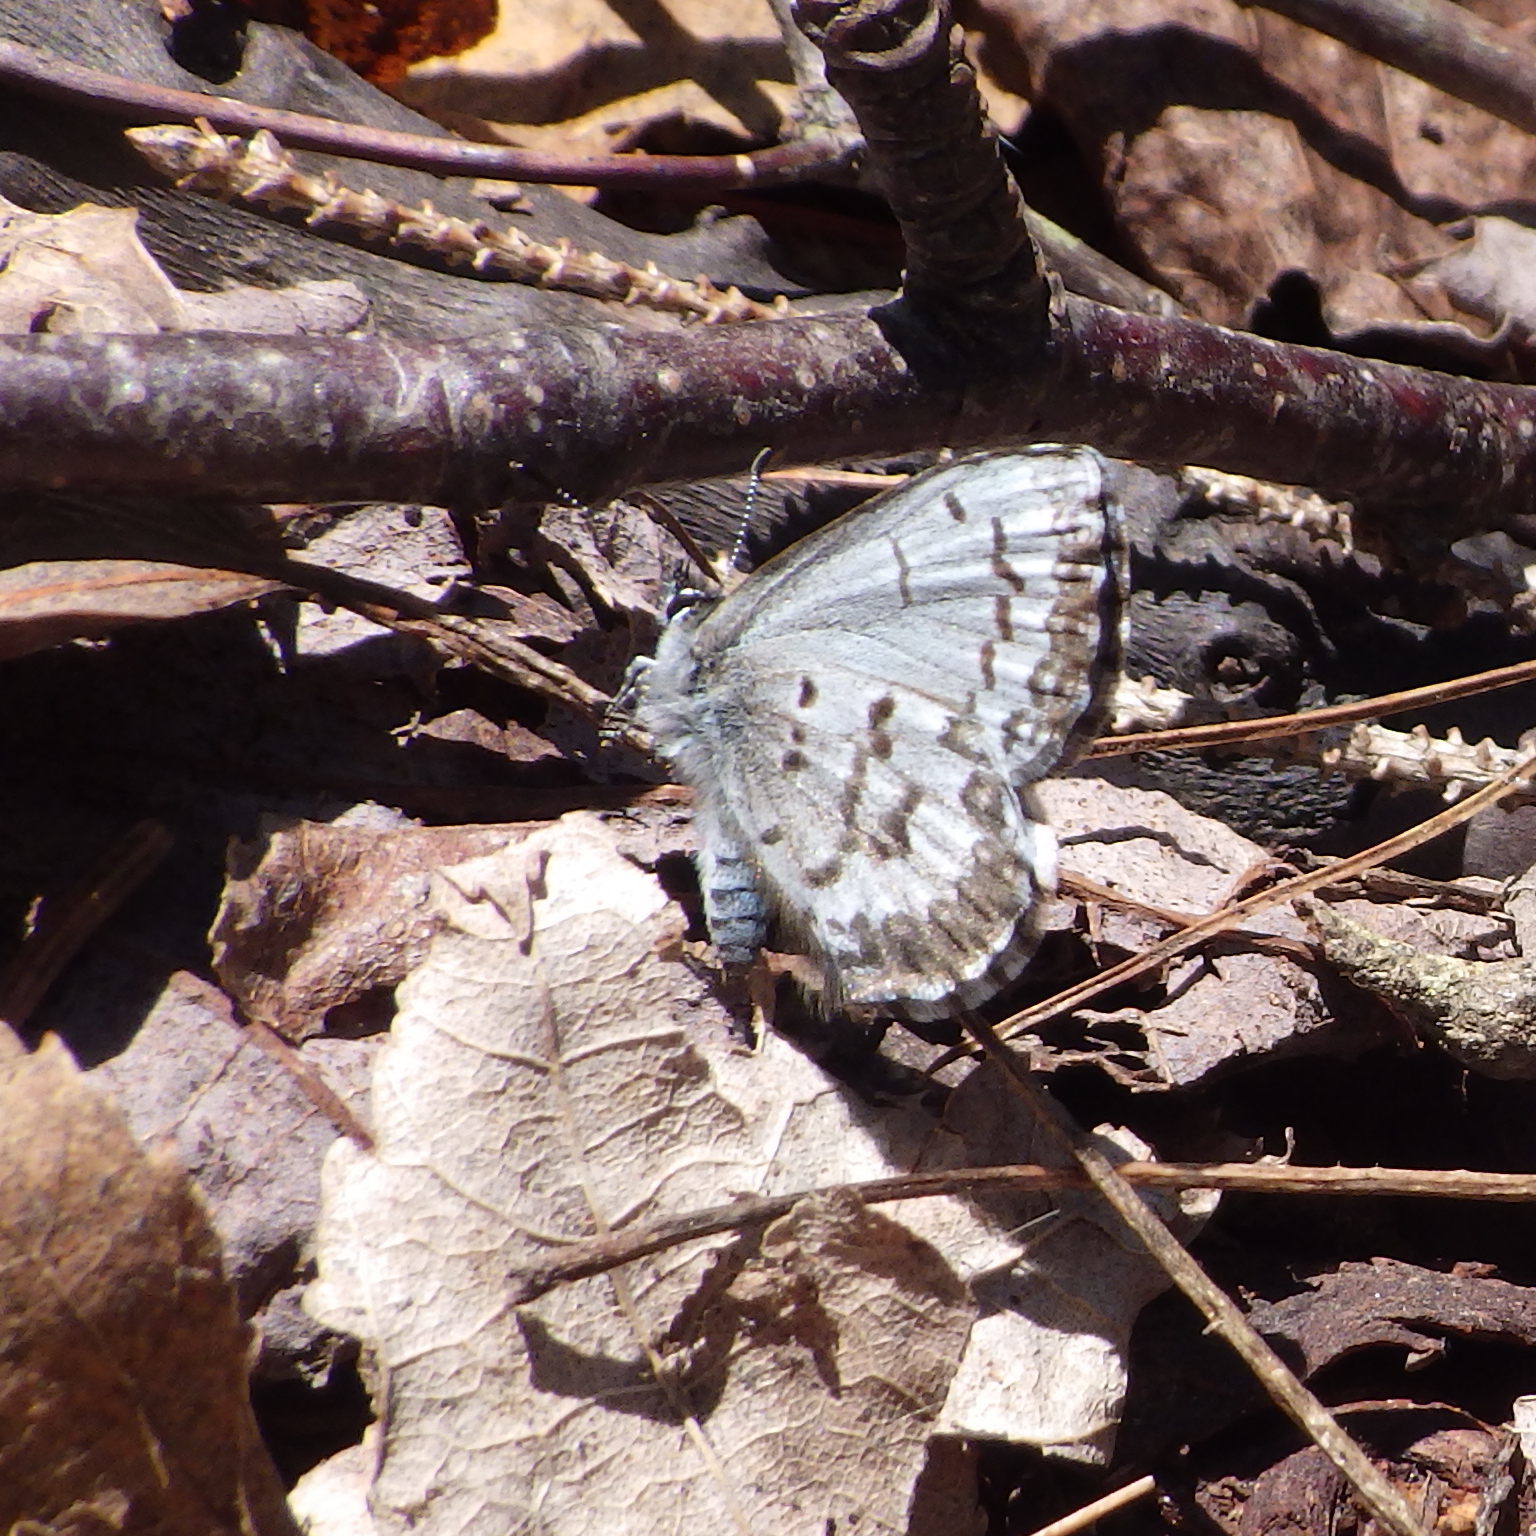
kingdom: Animalia
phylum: Arthropoda
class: Insecta
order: Lepidoptera
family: Lycaenidae
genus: Celastrina
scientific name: Celastrina lucia
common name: Lucia azure
